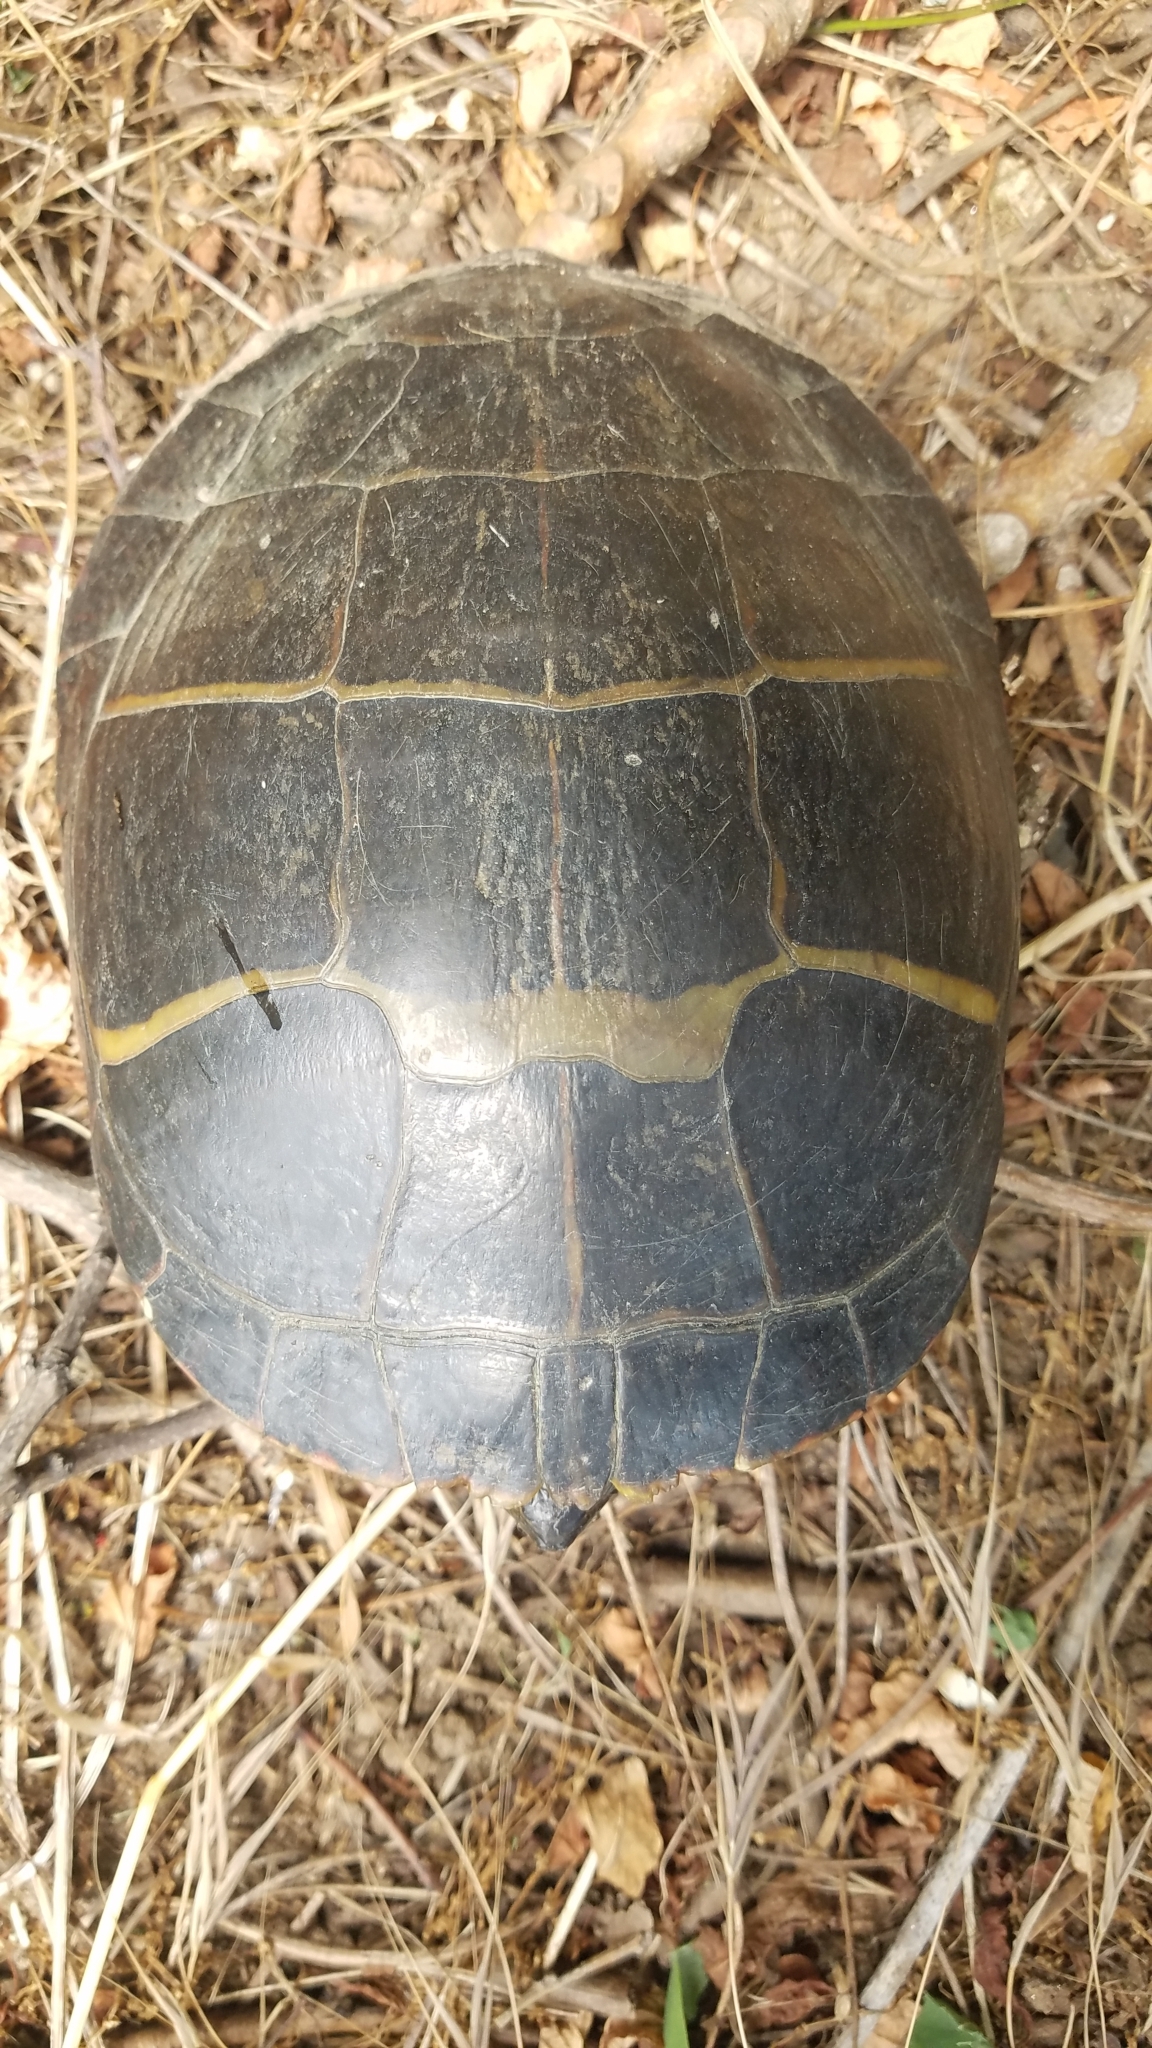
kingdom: Animalia
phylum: Chordata
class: Testudines
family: Emydidae
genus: Chrysemys
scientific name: Chrysemys picta
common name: Painted turtle
